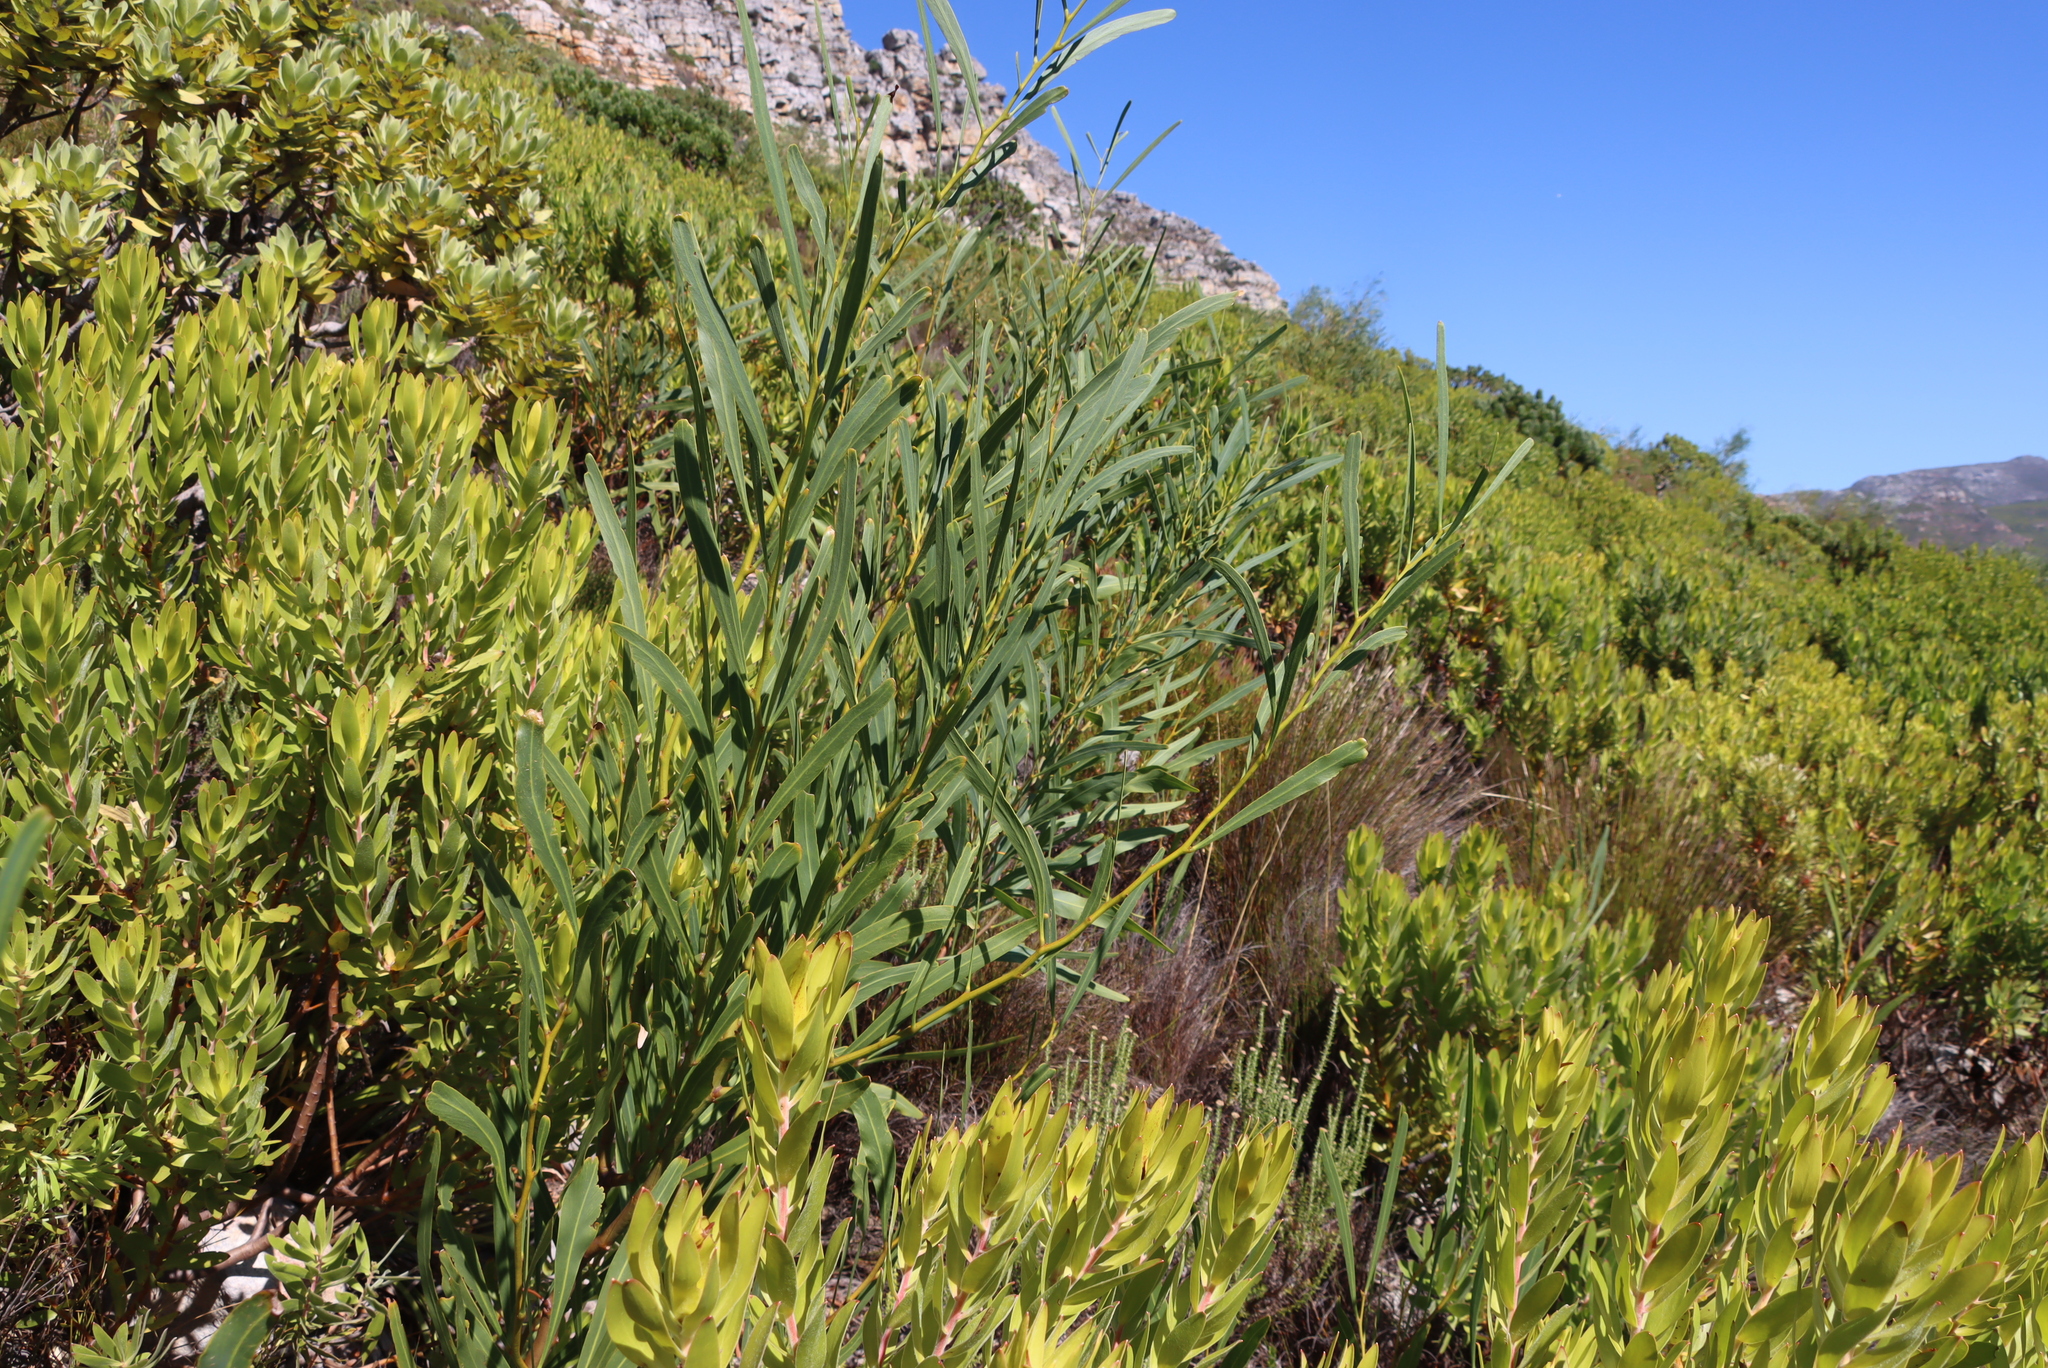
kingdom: Plantae
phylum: Tracheophyta
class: Magnoliopsida
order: Fabales
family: Fabaceae
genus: Acacia
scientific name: Acacia saligna
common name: Orange wattle
